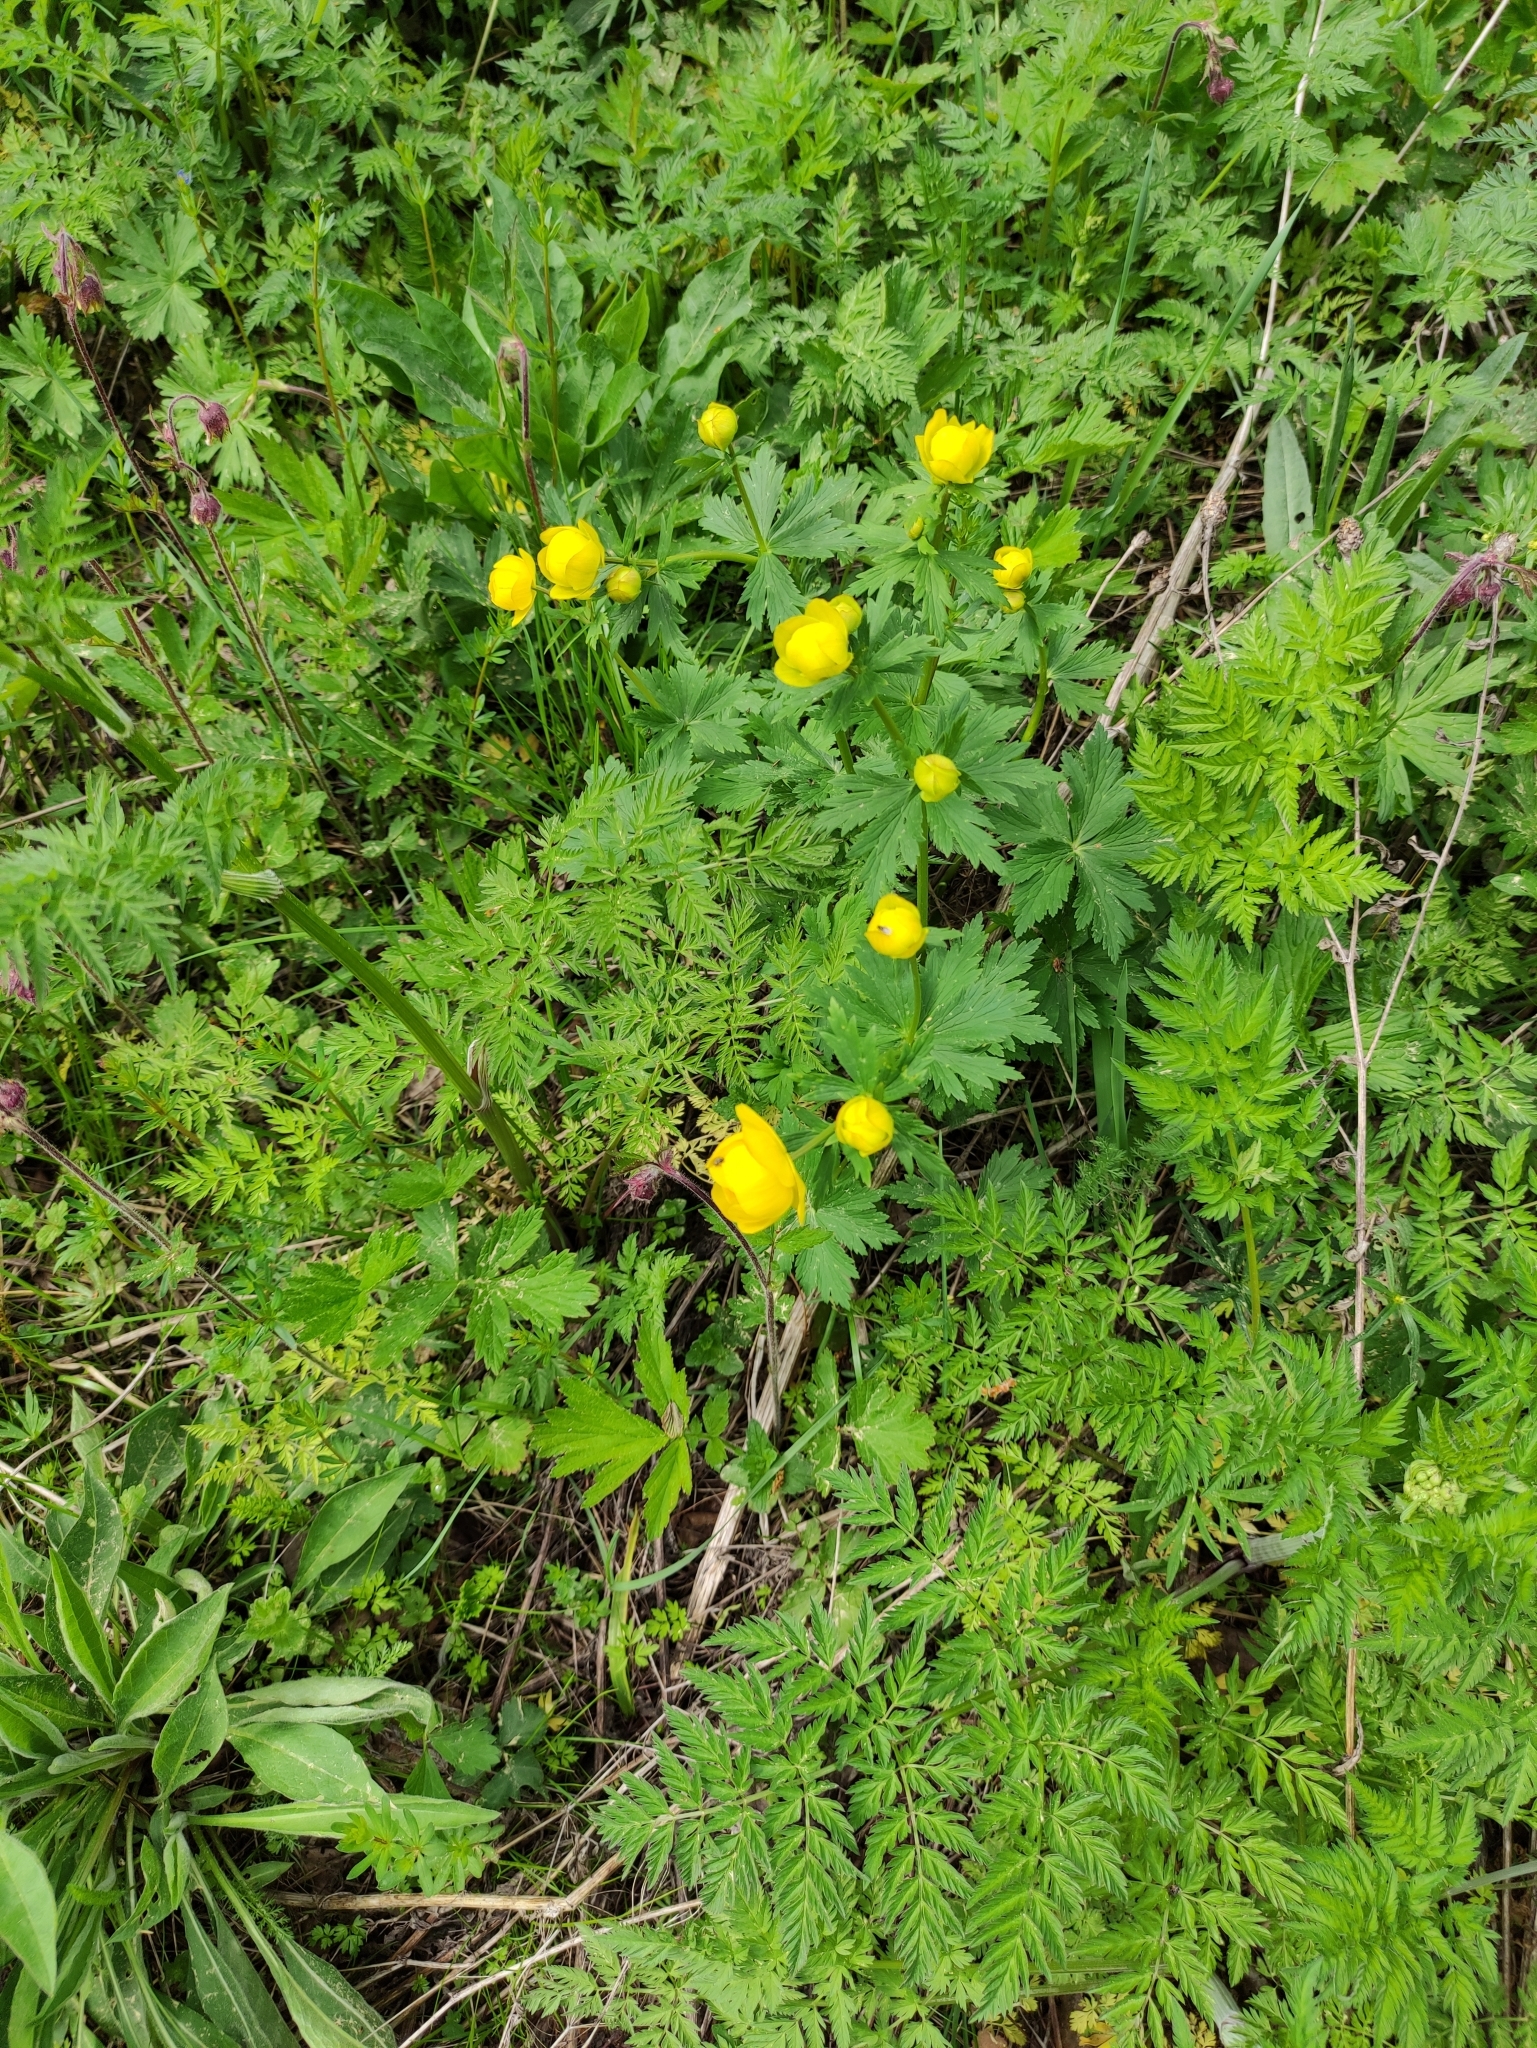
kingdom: Plantae
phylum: Tracheophyta
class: Magnoliopsida
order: Ranunculales
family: Ranunculaceae
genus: Trollius
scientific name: Trollius europaeus
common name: European globeflower
